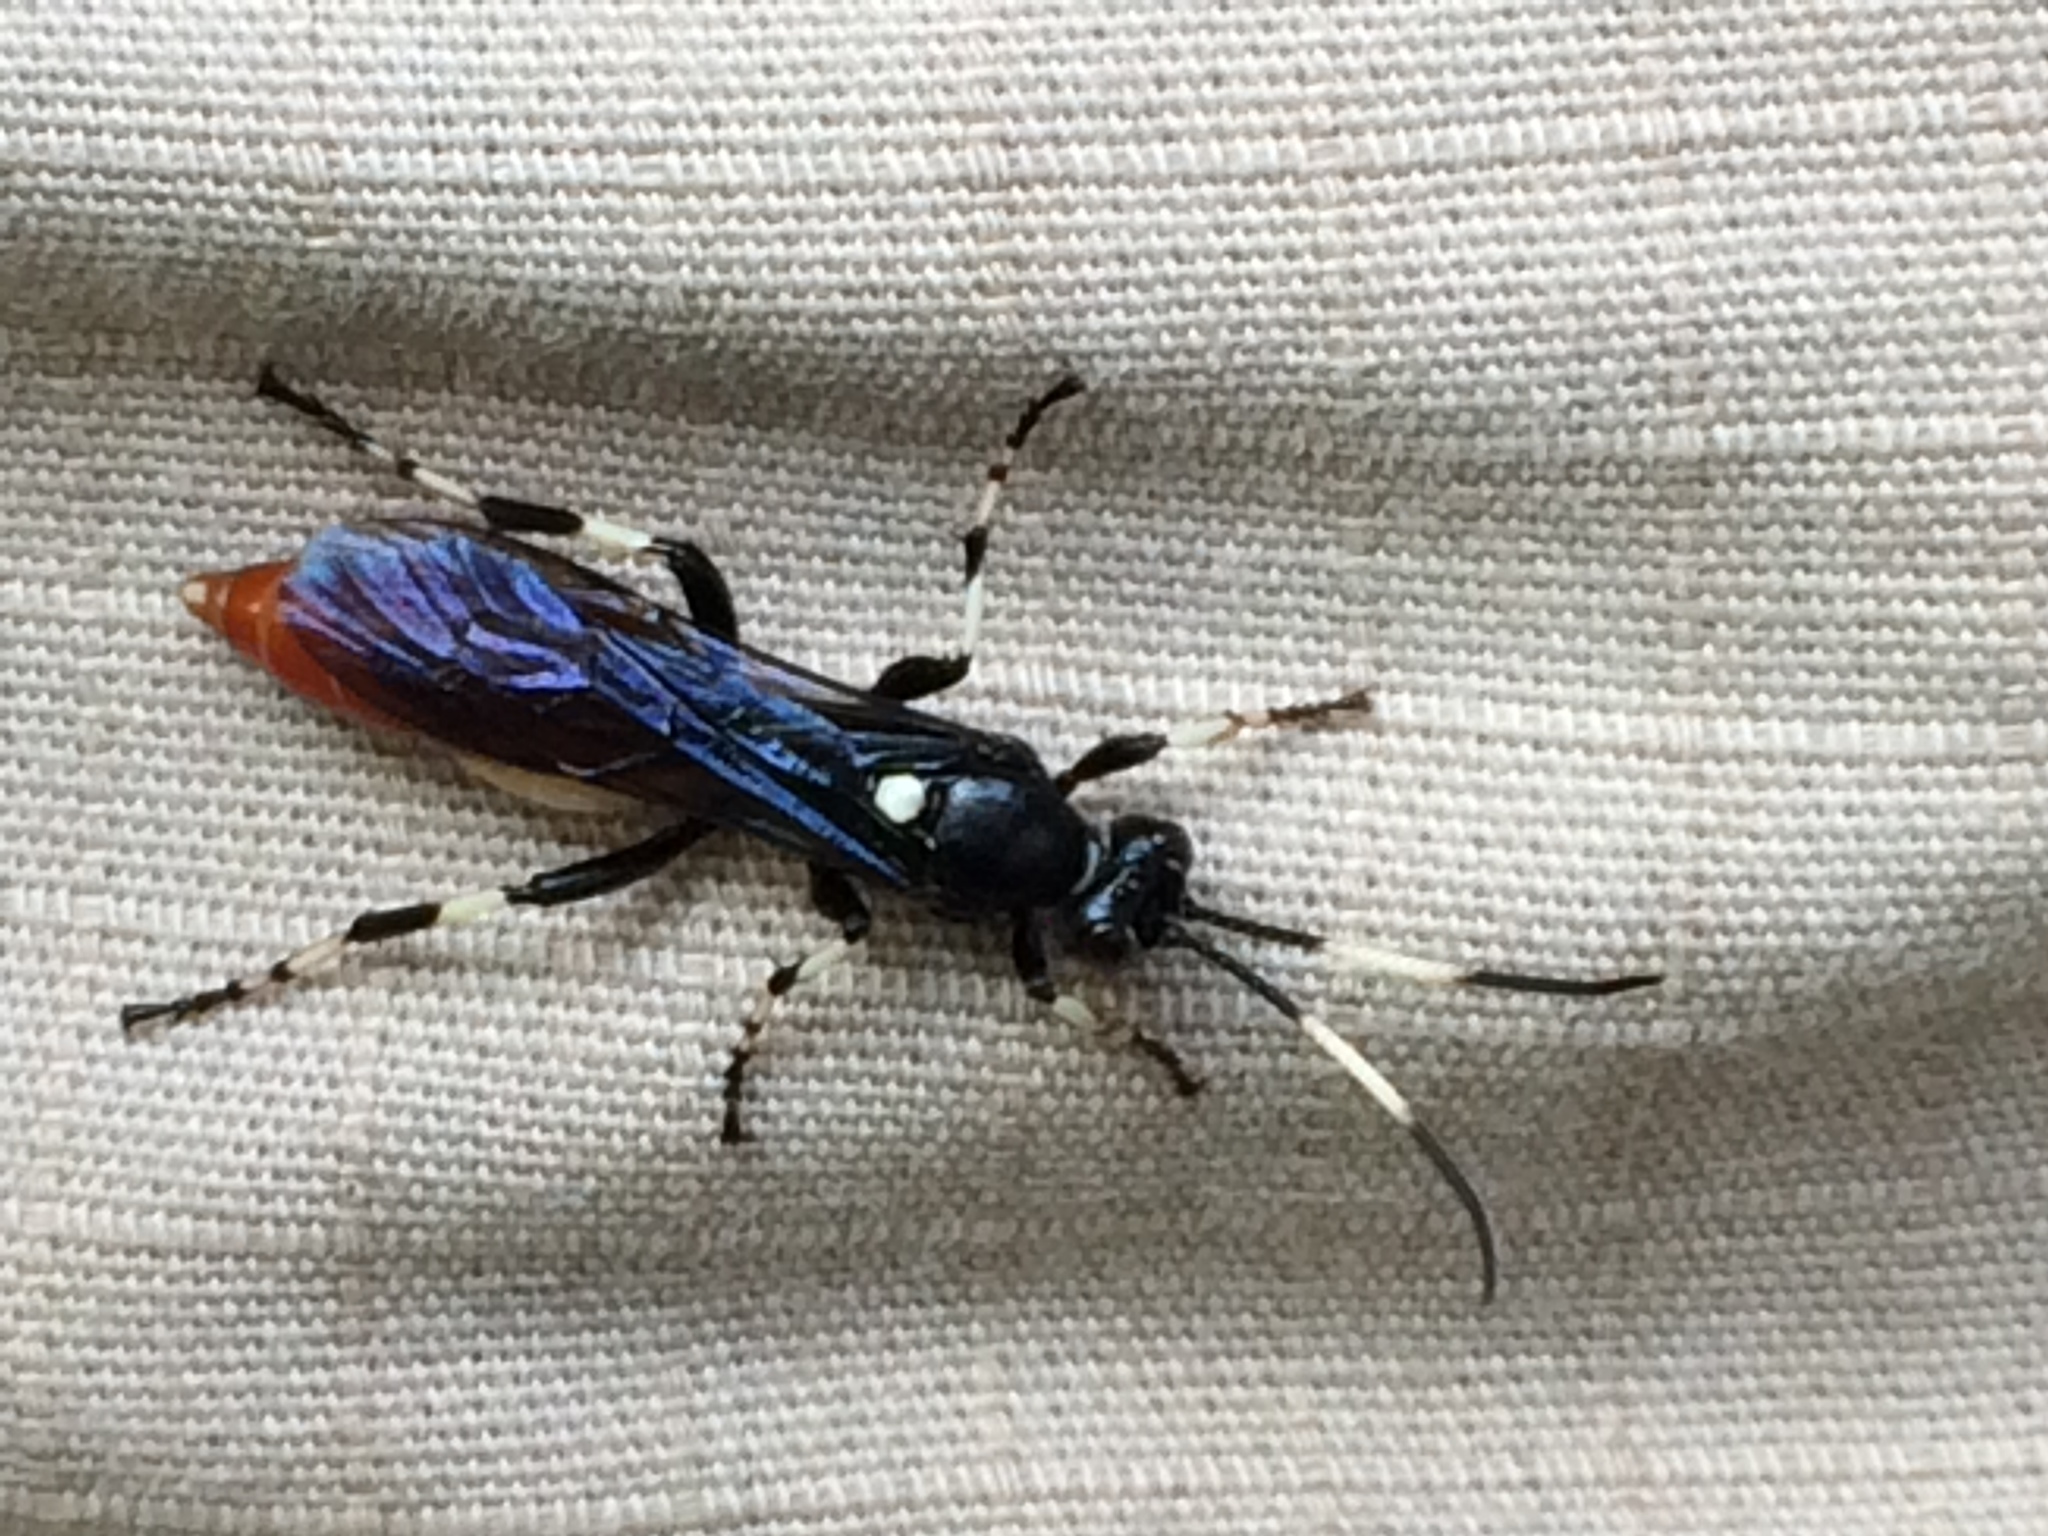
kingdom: Animalia
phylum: Arthropoda
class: Insecta
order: Hymenoptera
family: Ichneumonidae
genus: Ichneumon
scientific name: Ichneumon devinctor
